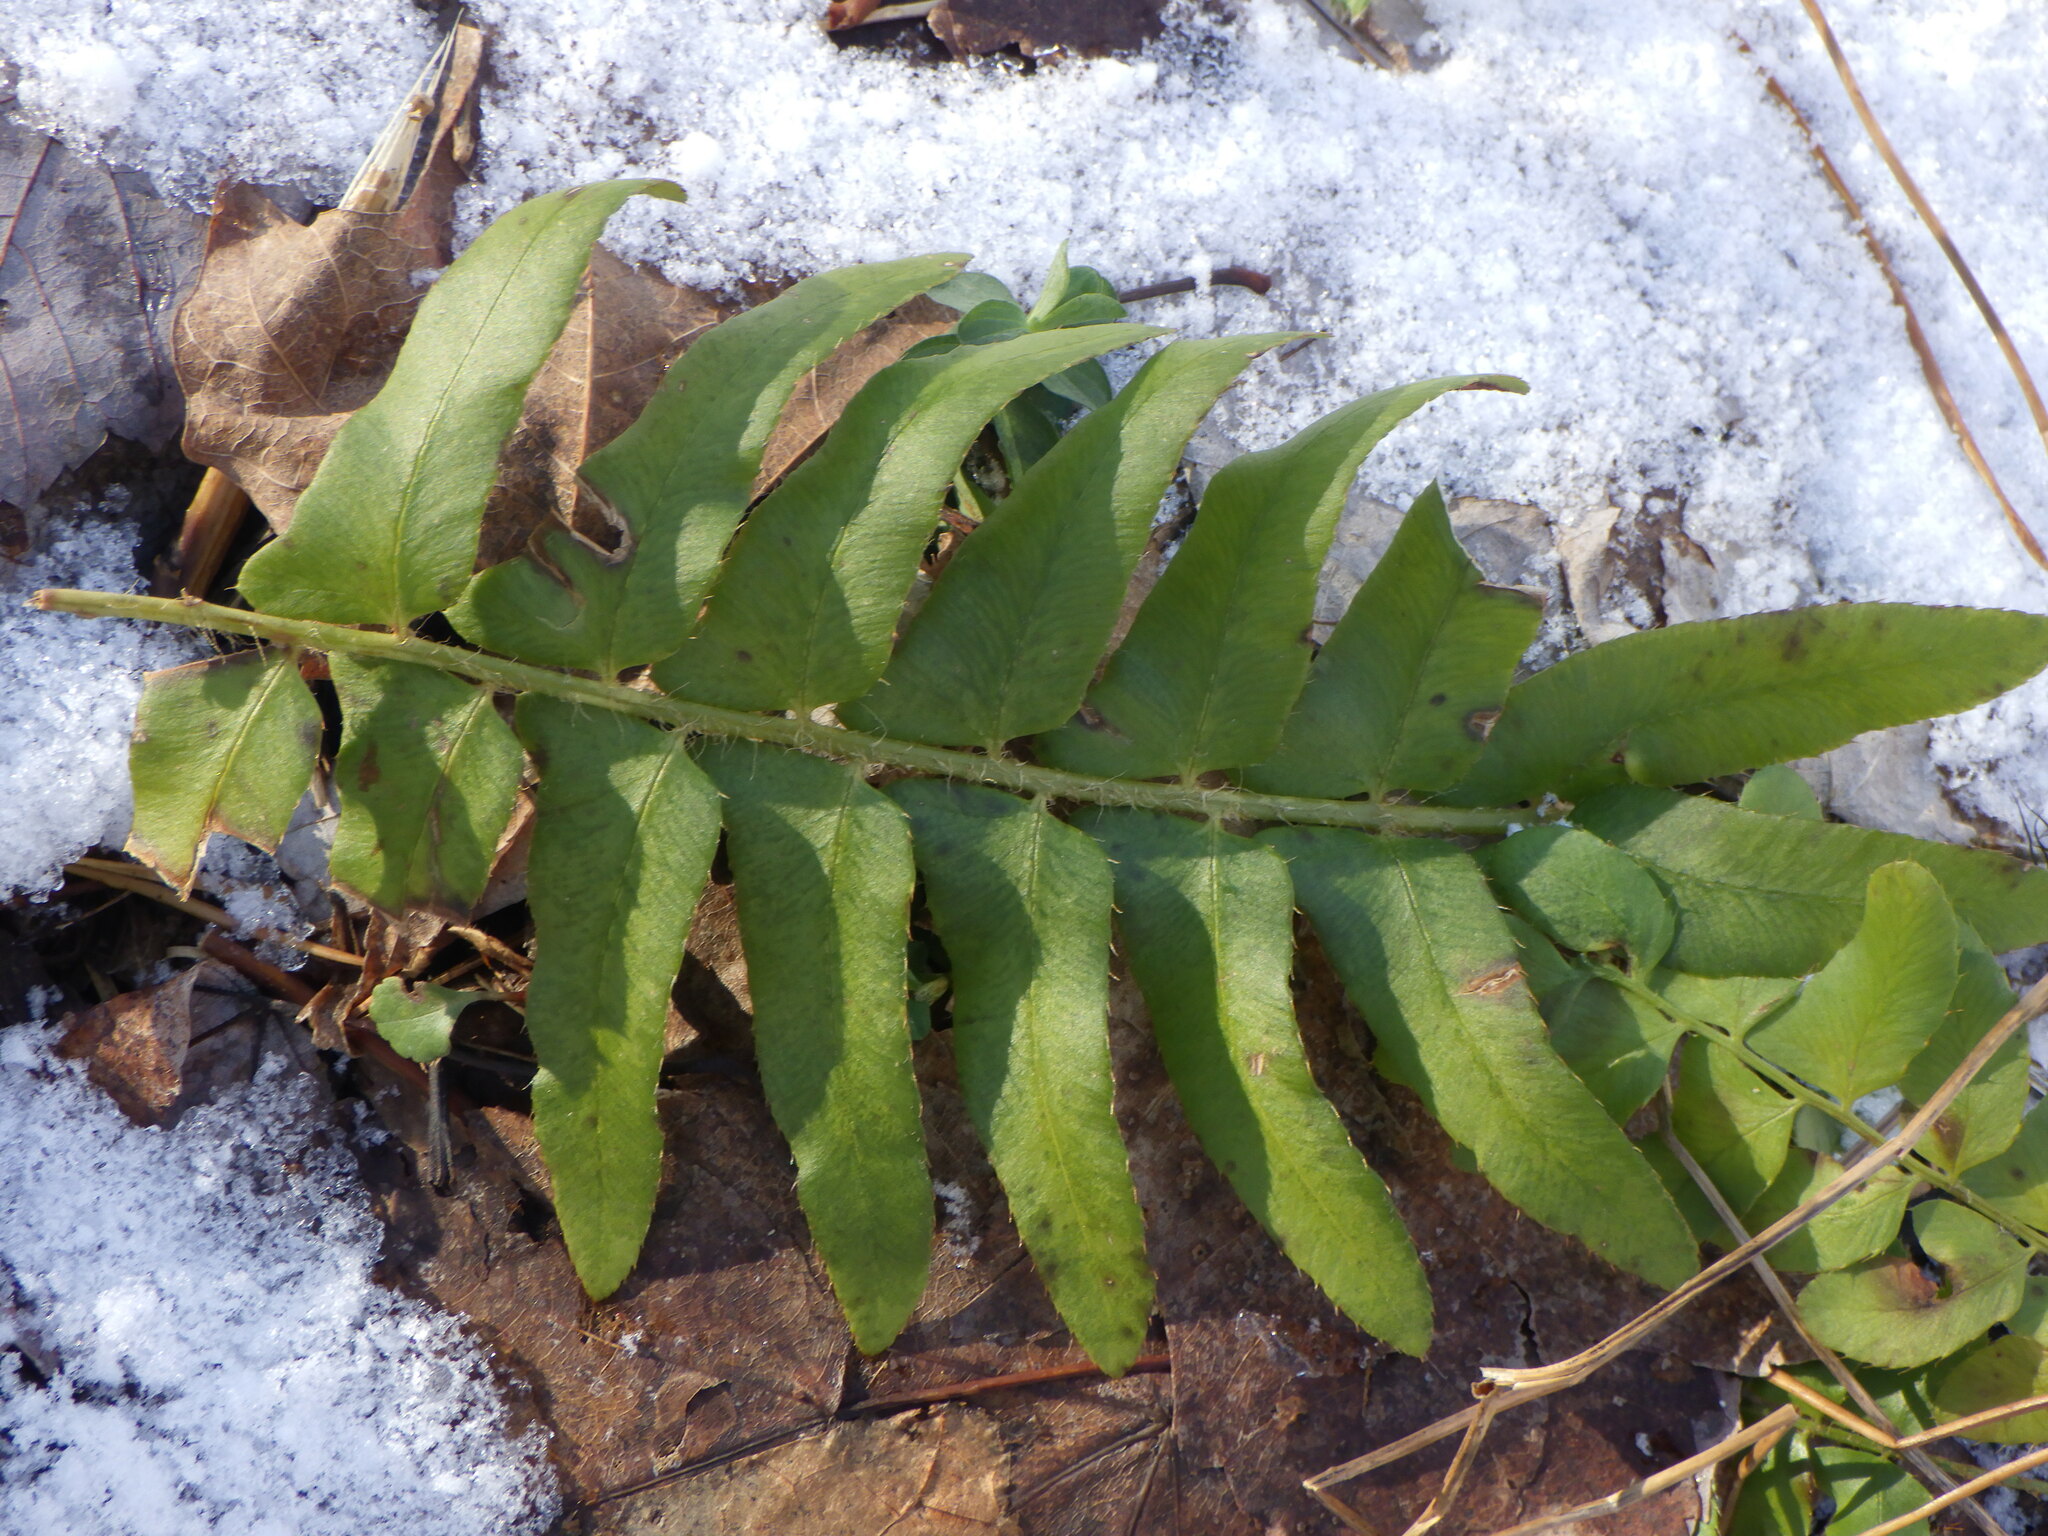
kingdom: Plantae
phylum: Tracheophyta
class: Polypodiopsida
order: Polypodiales
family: Dryopteridaceae
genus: Polystichum
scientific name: Polystichum acrostichoides
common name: Christmas fern
